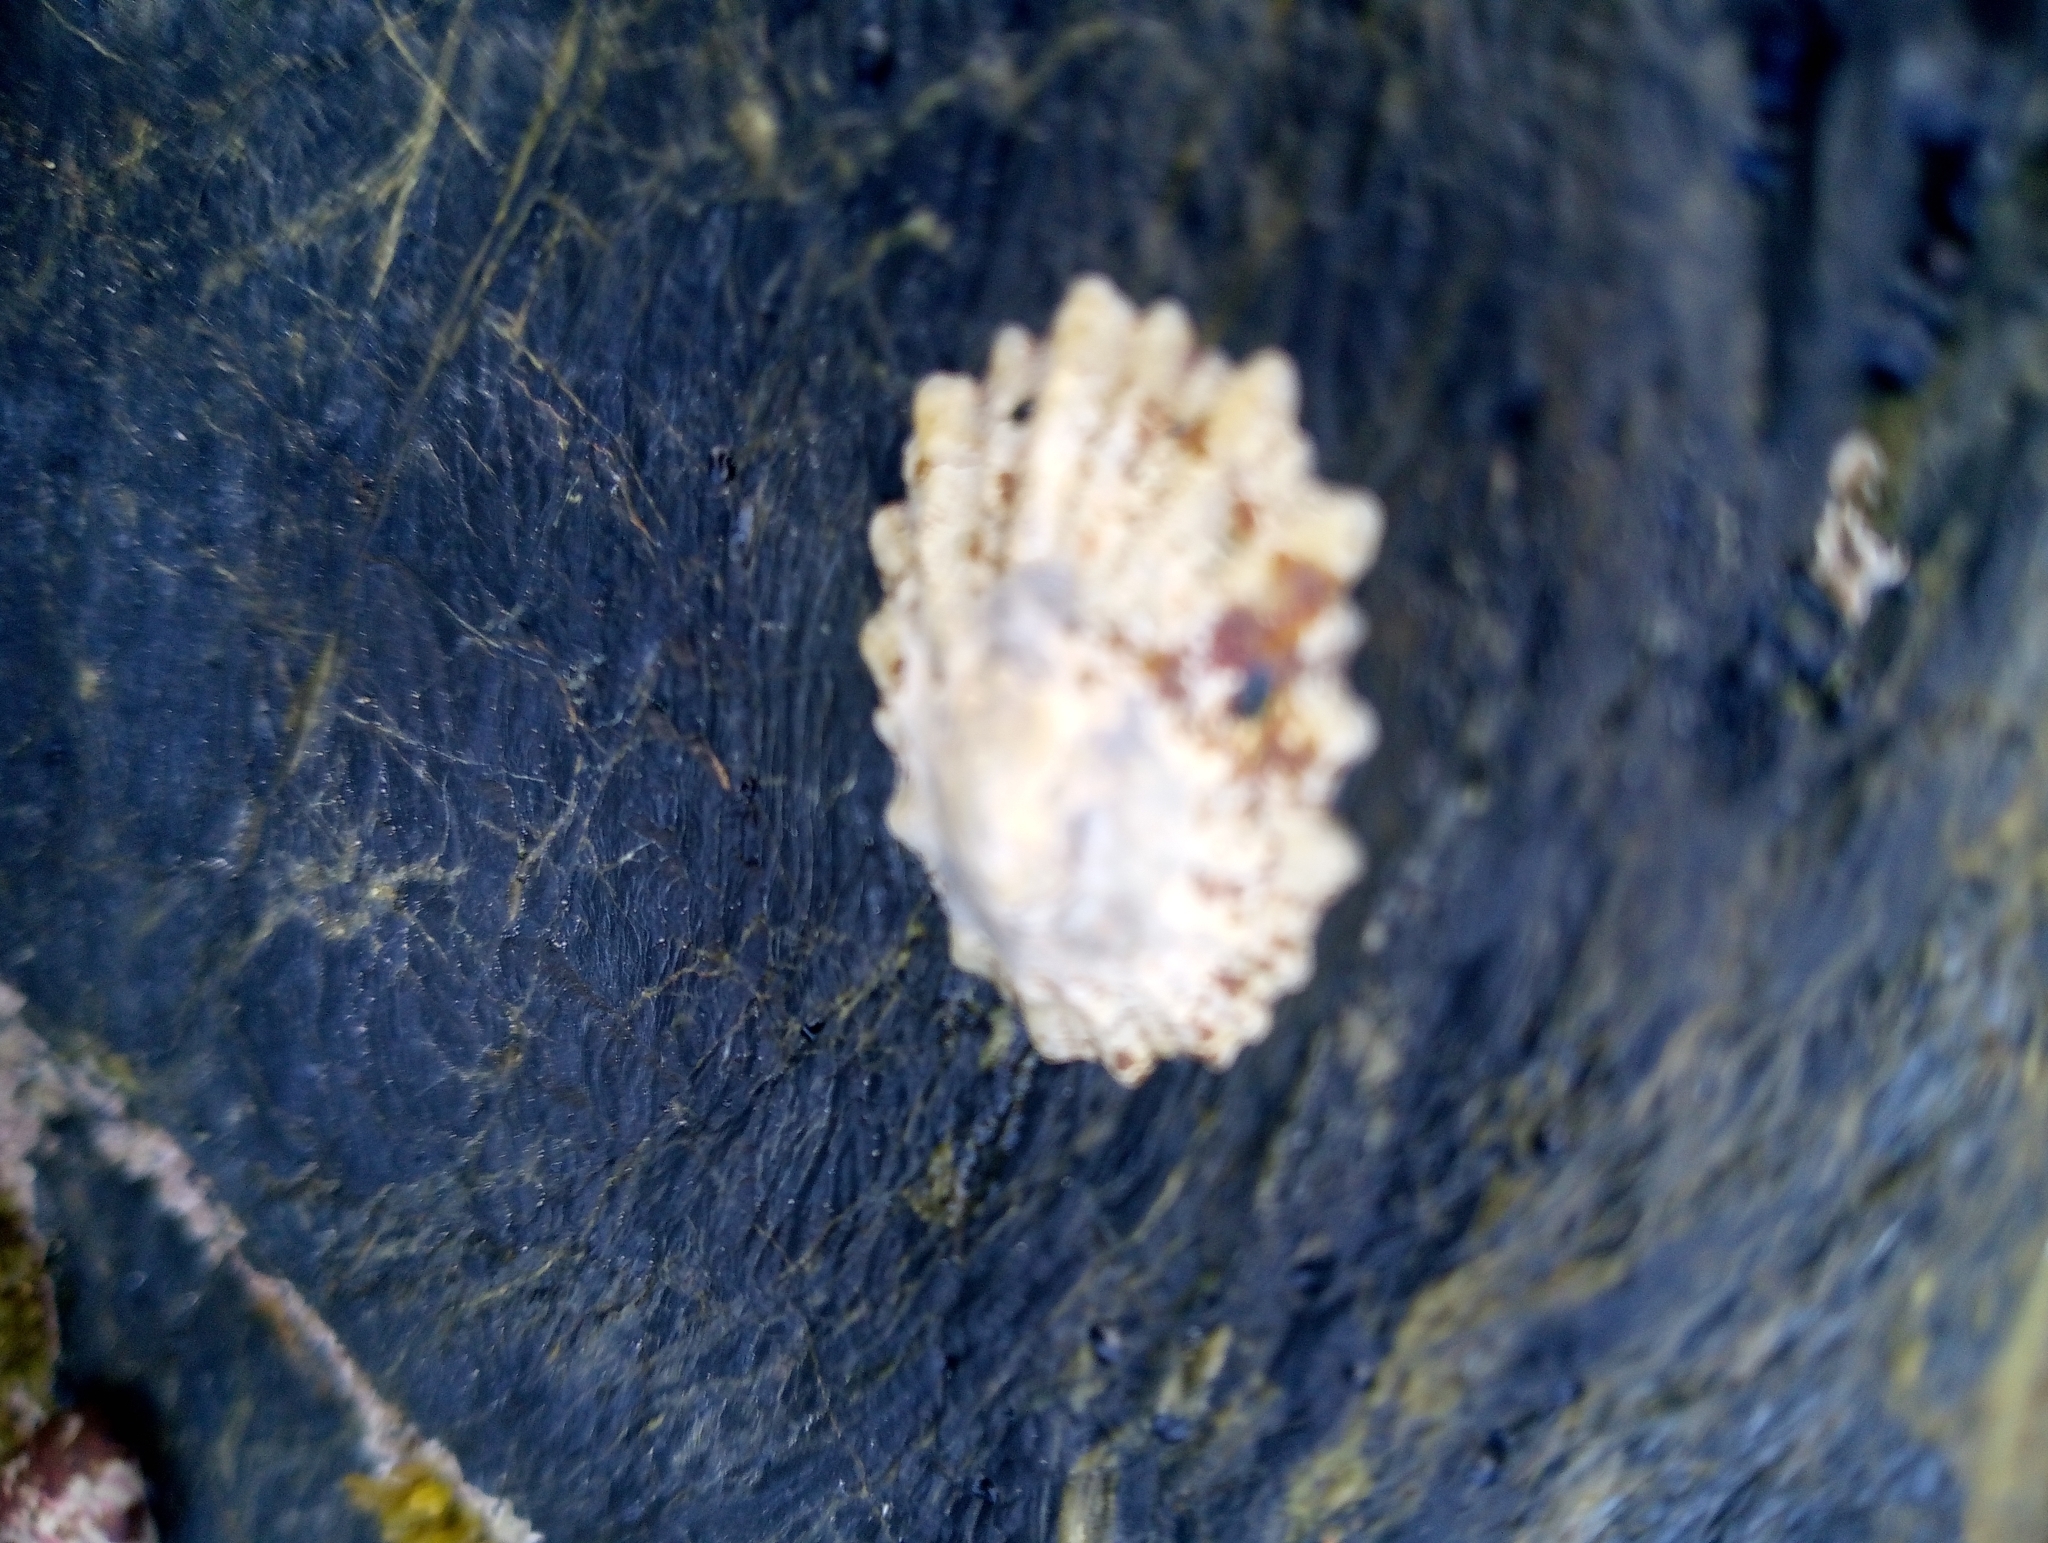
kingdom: Animalia
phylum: Mollusca
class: Gastropoda
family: Patellidae
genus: Patella
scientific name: Patella
